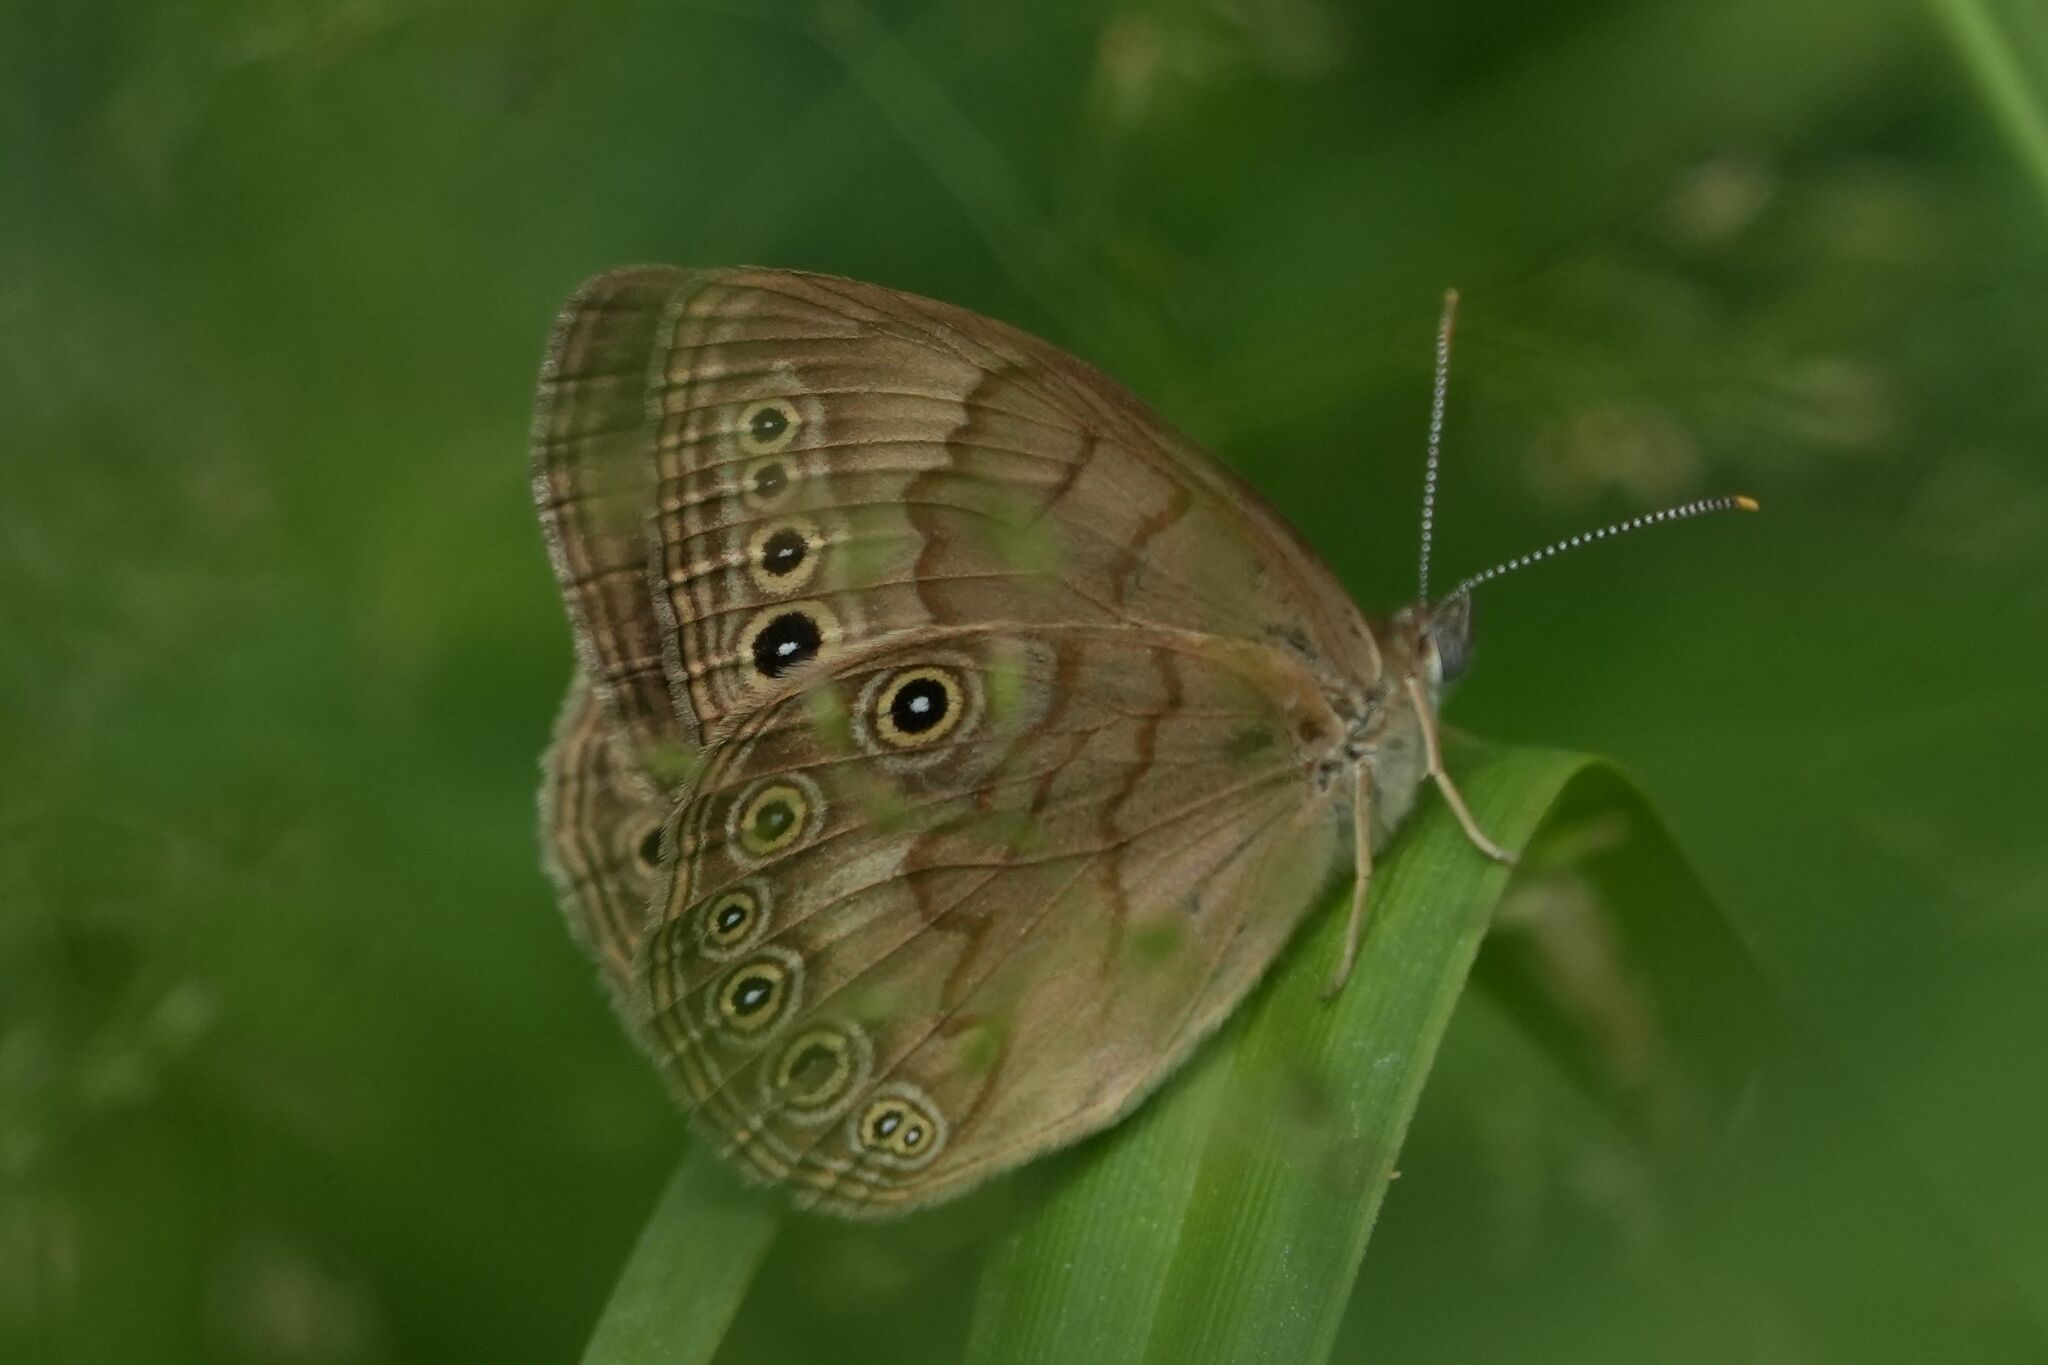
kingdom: Animalia
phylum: Arthropoda
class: Insecta
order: Lepidoptera
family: Nymphalidae
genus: Lethe
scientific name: Lethe eurydice
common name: Eyed brown
